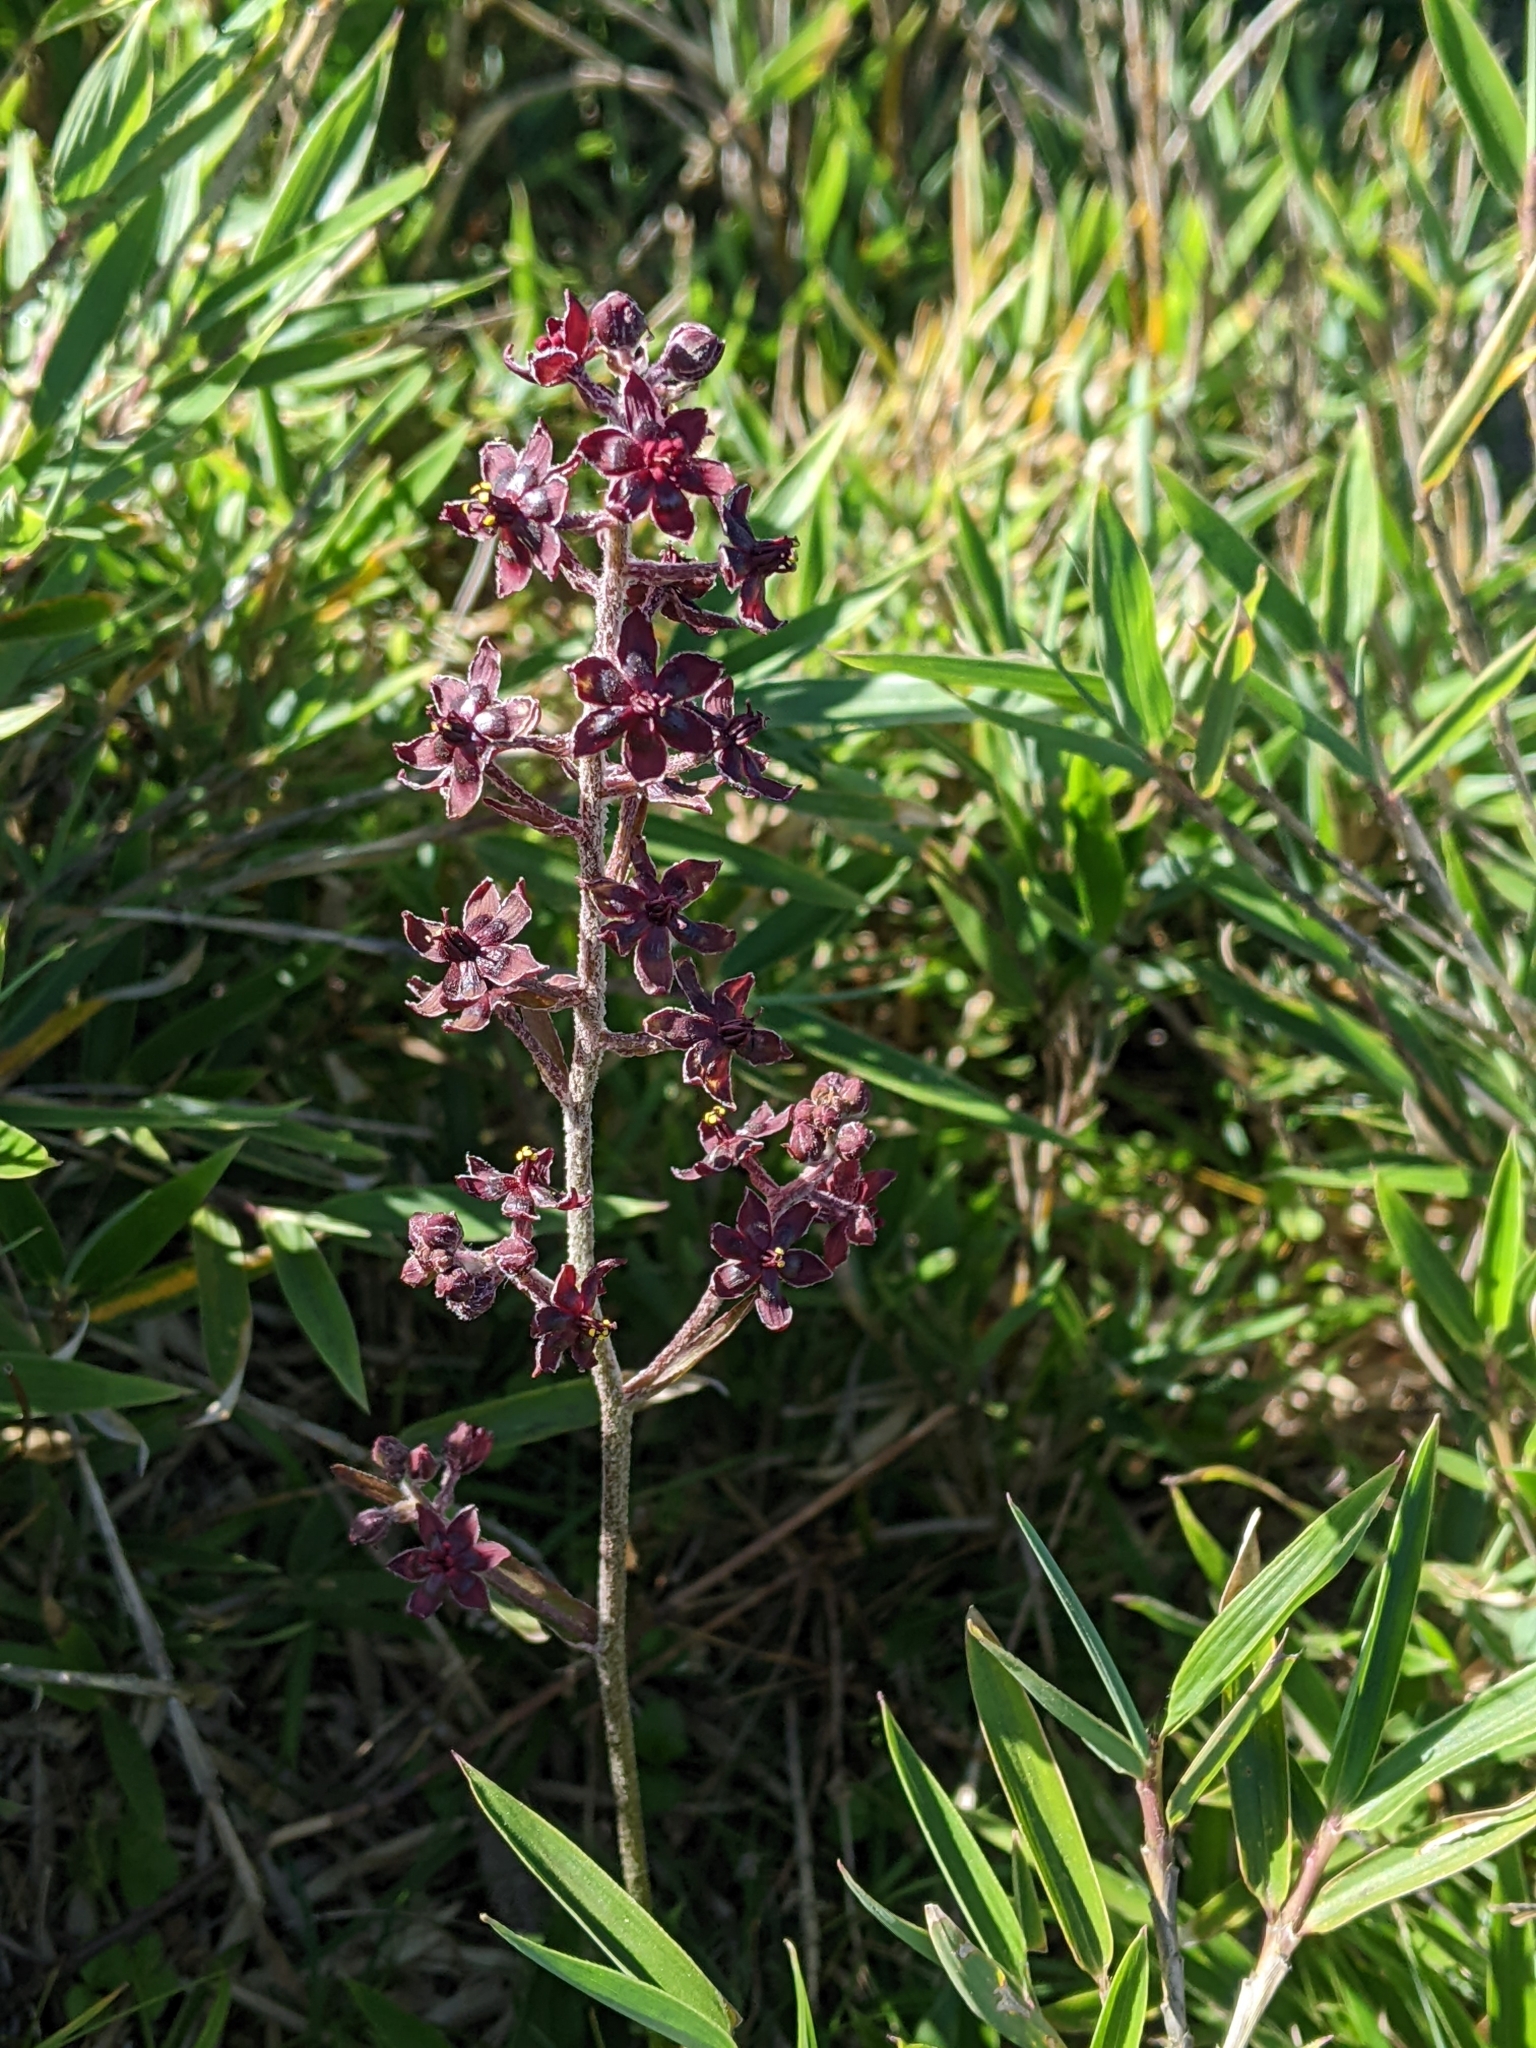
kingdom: Plantae
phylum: Tracheophyta
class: Liliopsida
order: Liliales
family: Melanthiaceae
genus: Veratrum
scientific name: Veratrum formosanum
